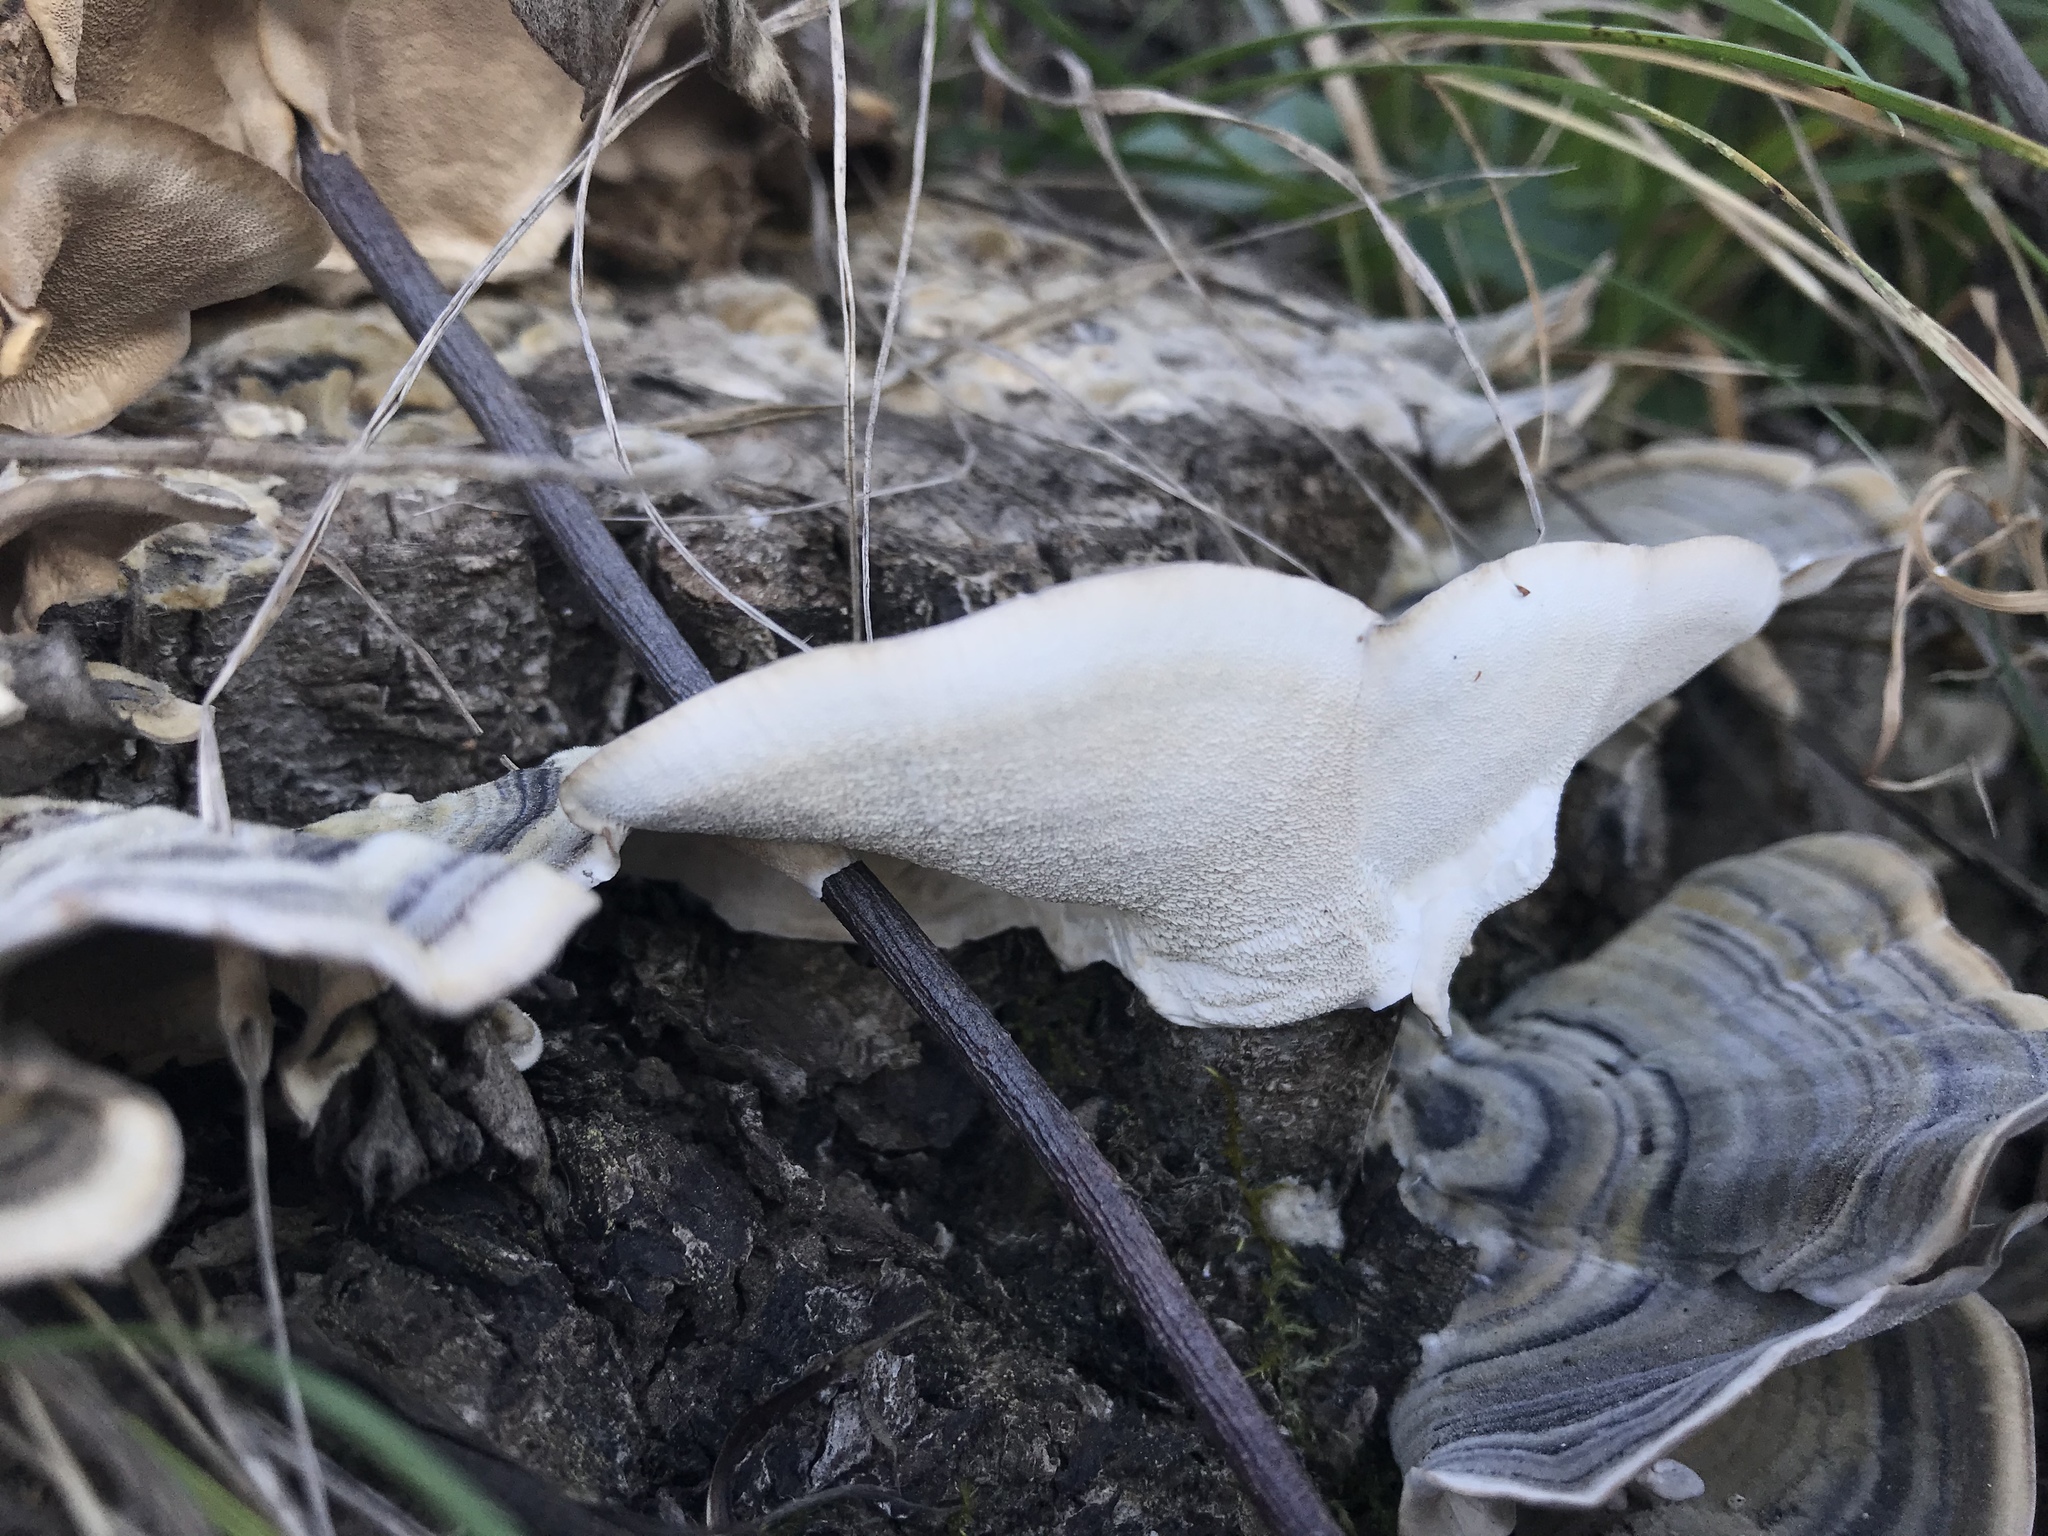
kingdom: Fungi
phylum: Basidiomycota
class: Agaricomycetes
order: Polyporales
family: Polyporaceae
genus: Trametes
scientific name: Trametes versicolor
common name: Turkeytail
